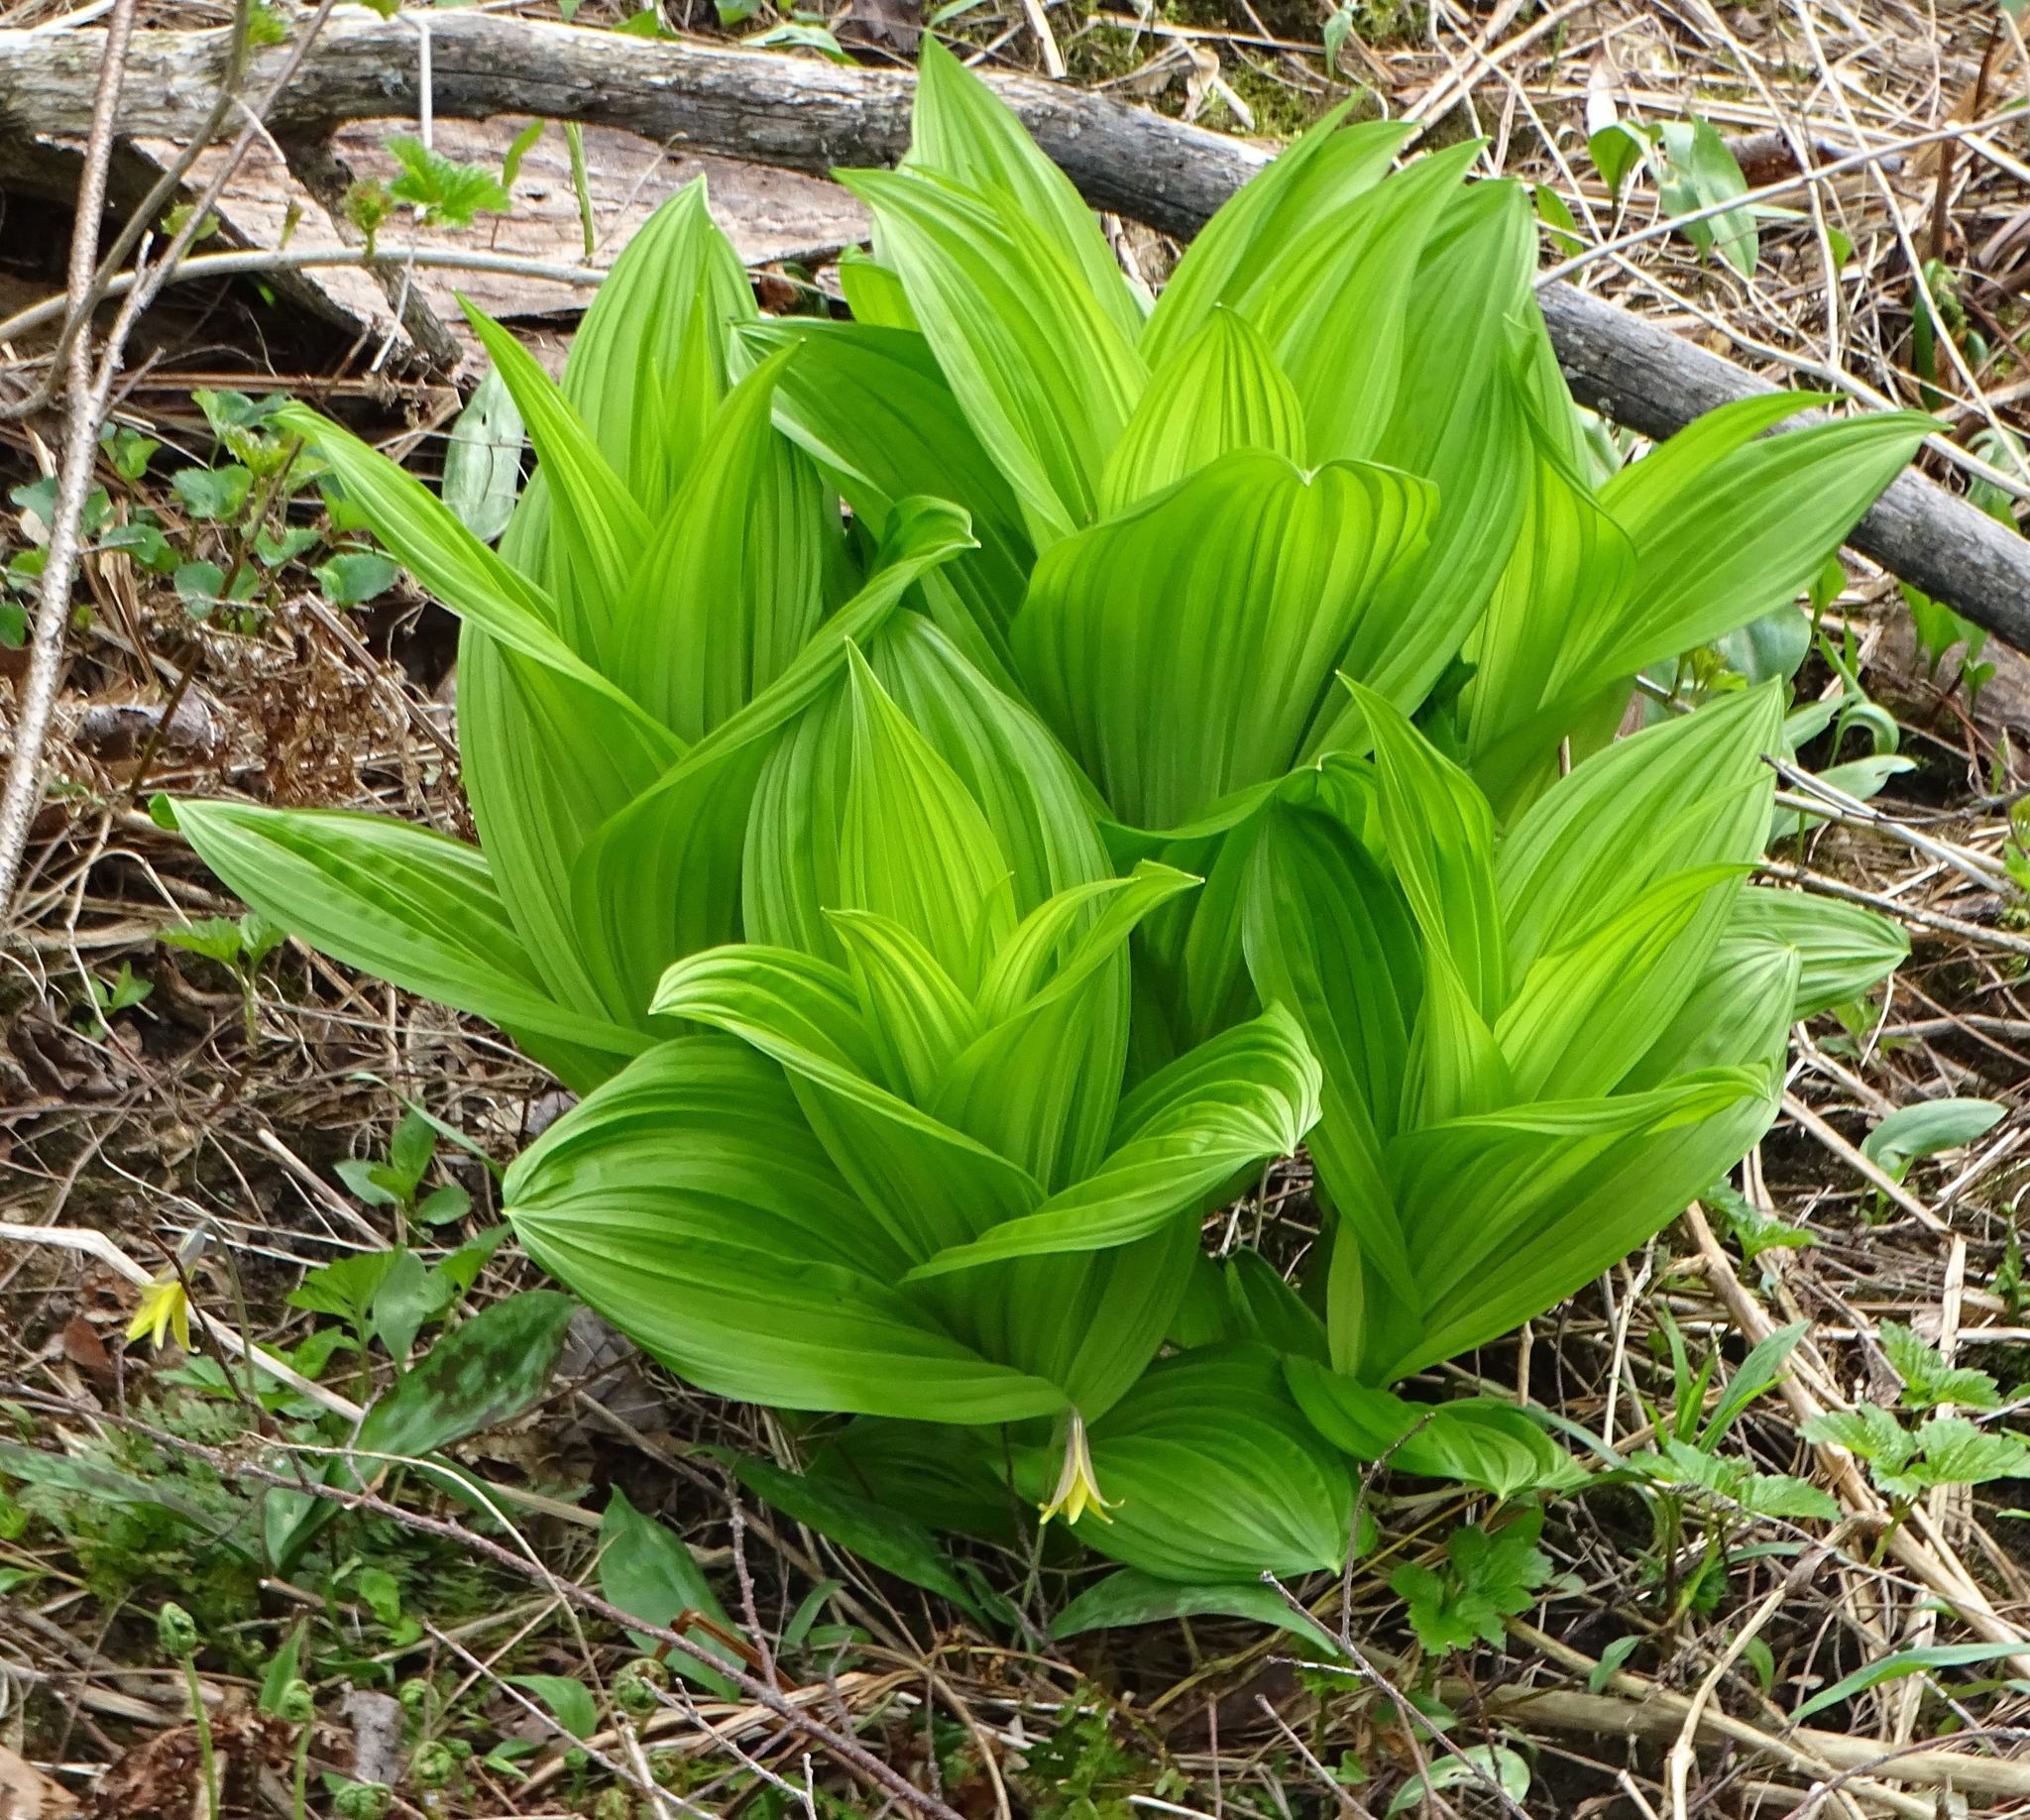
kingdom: Plantae
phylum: Tracheophyta
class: Liliopsida
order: Liliales
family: Melanthiaceae
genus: Veratrum
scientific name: Veratrum viride
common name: American false hellebore
